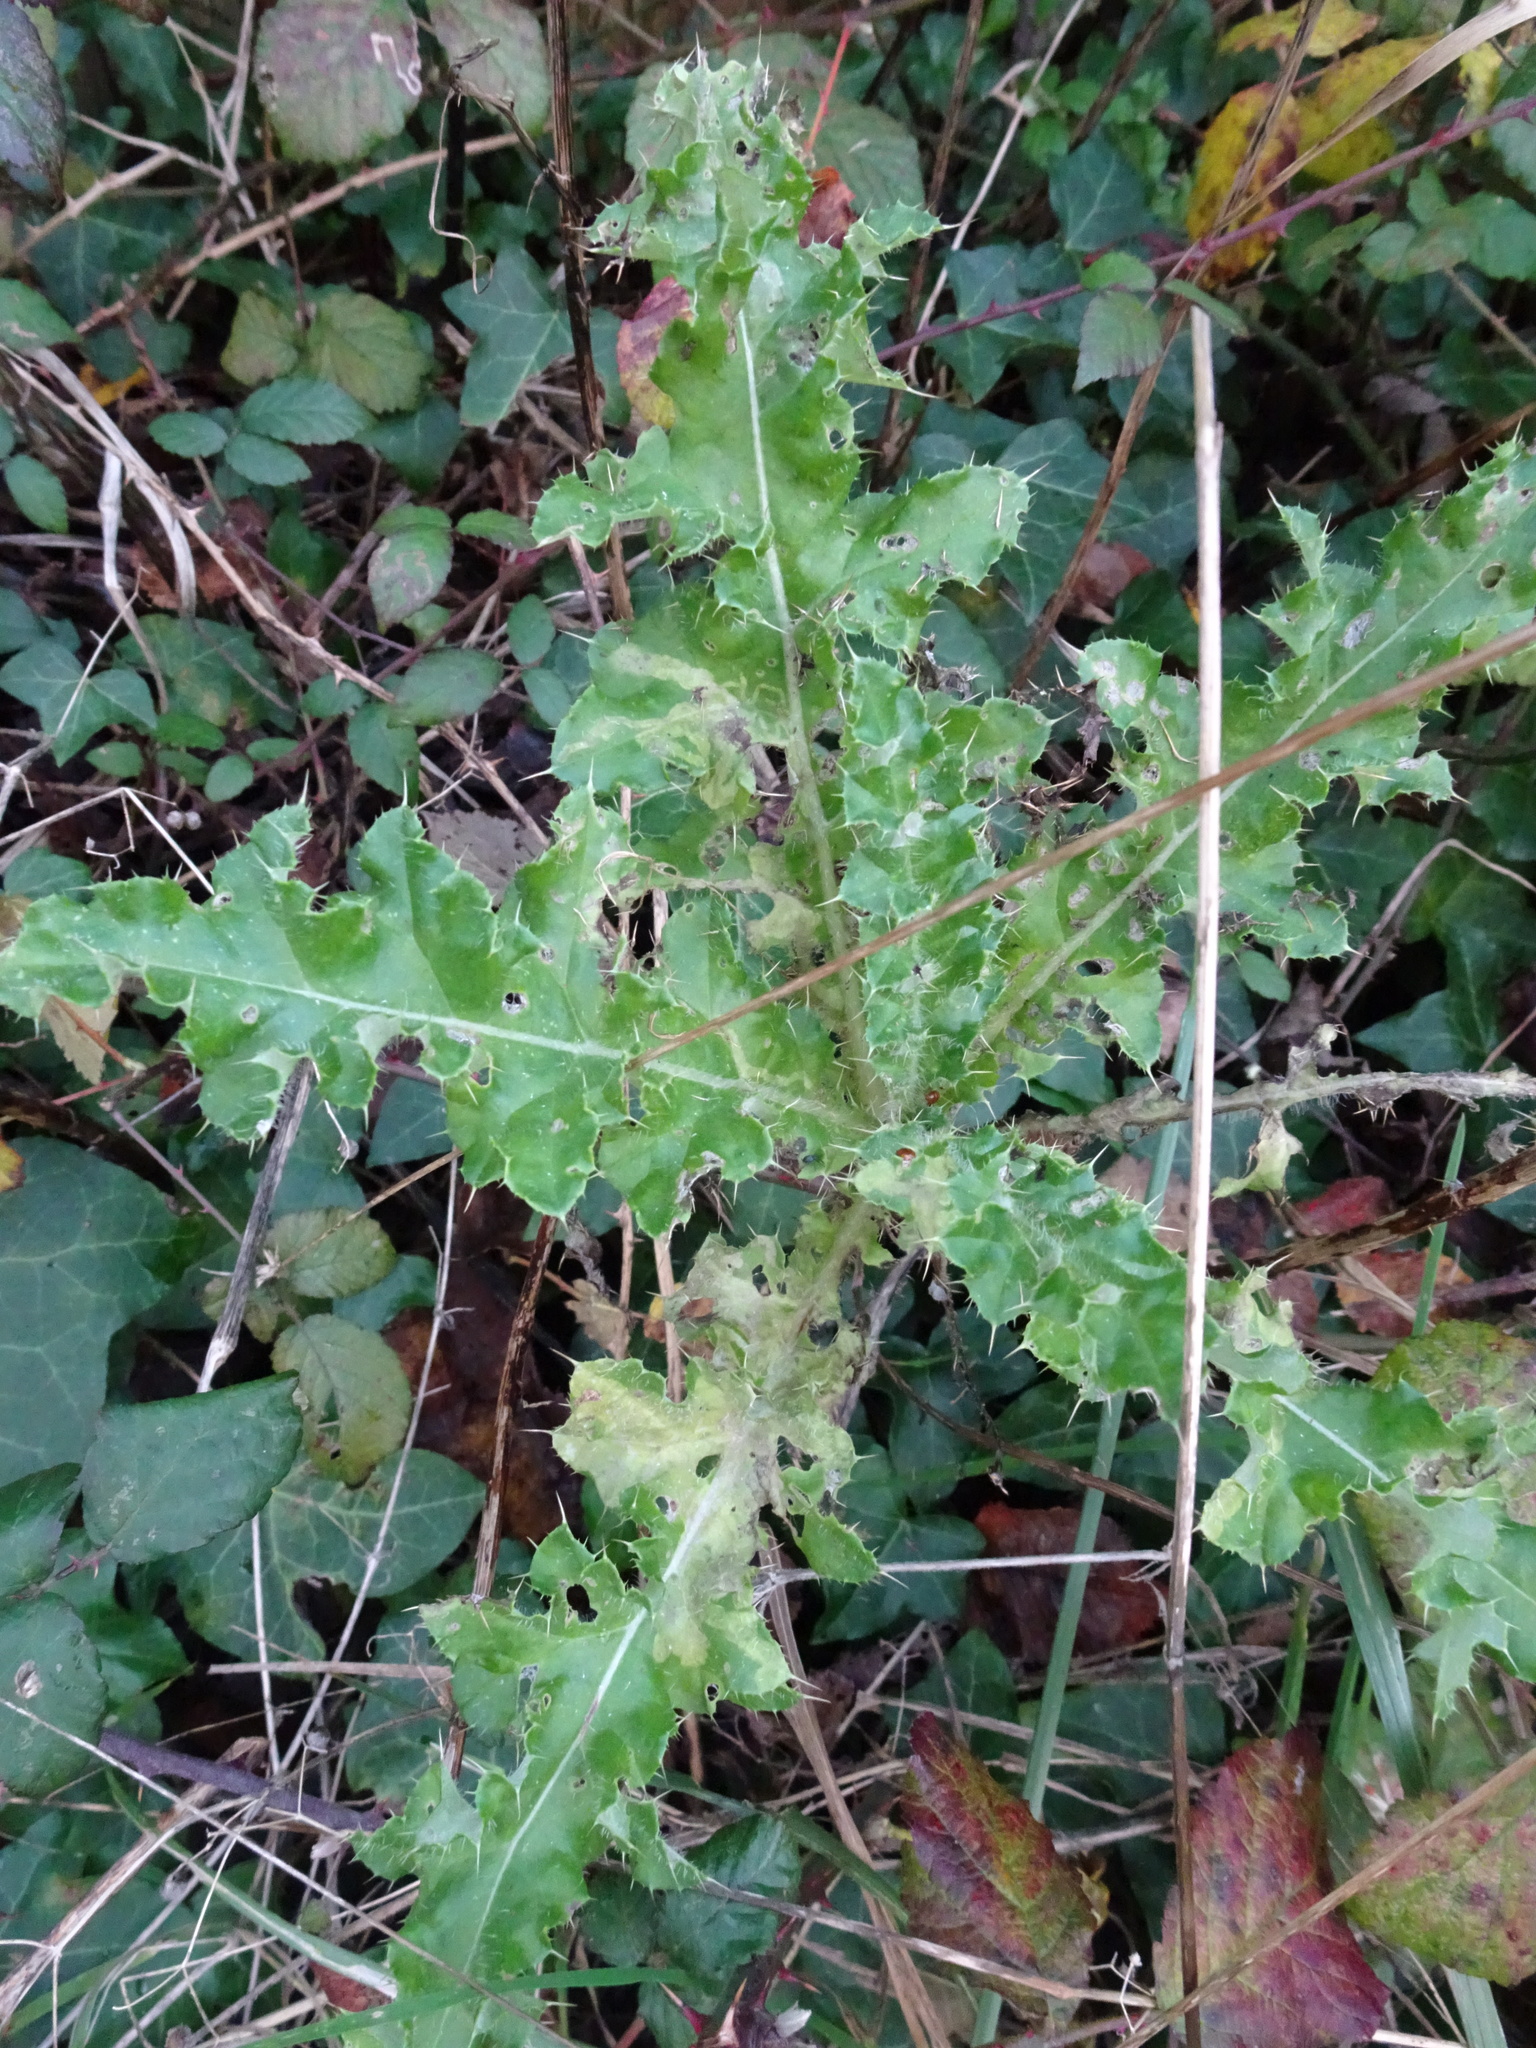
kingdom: Plantae
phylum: Tracheophyta
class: Magnoliopsida
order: Asterales
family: Asteraceae
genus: Cirsium
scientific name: Cirsium arvense
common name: Creeping thistle
